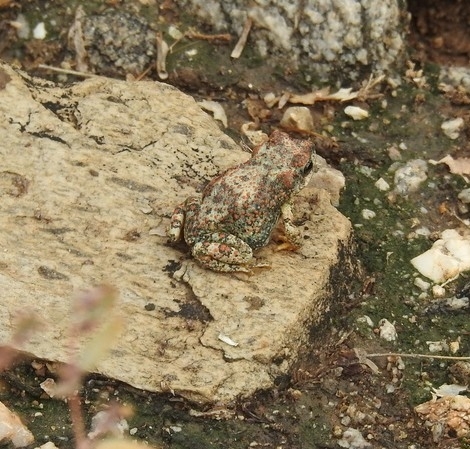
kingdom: Animalia
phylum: Chordata
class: Amphibia
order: Anura
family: Bufonidae
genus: Anaxyrus
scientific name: Anaxyrus punctatus
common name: Red-spotted toad
